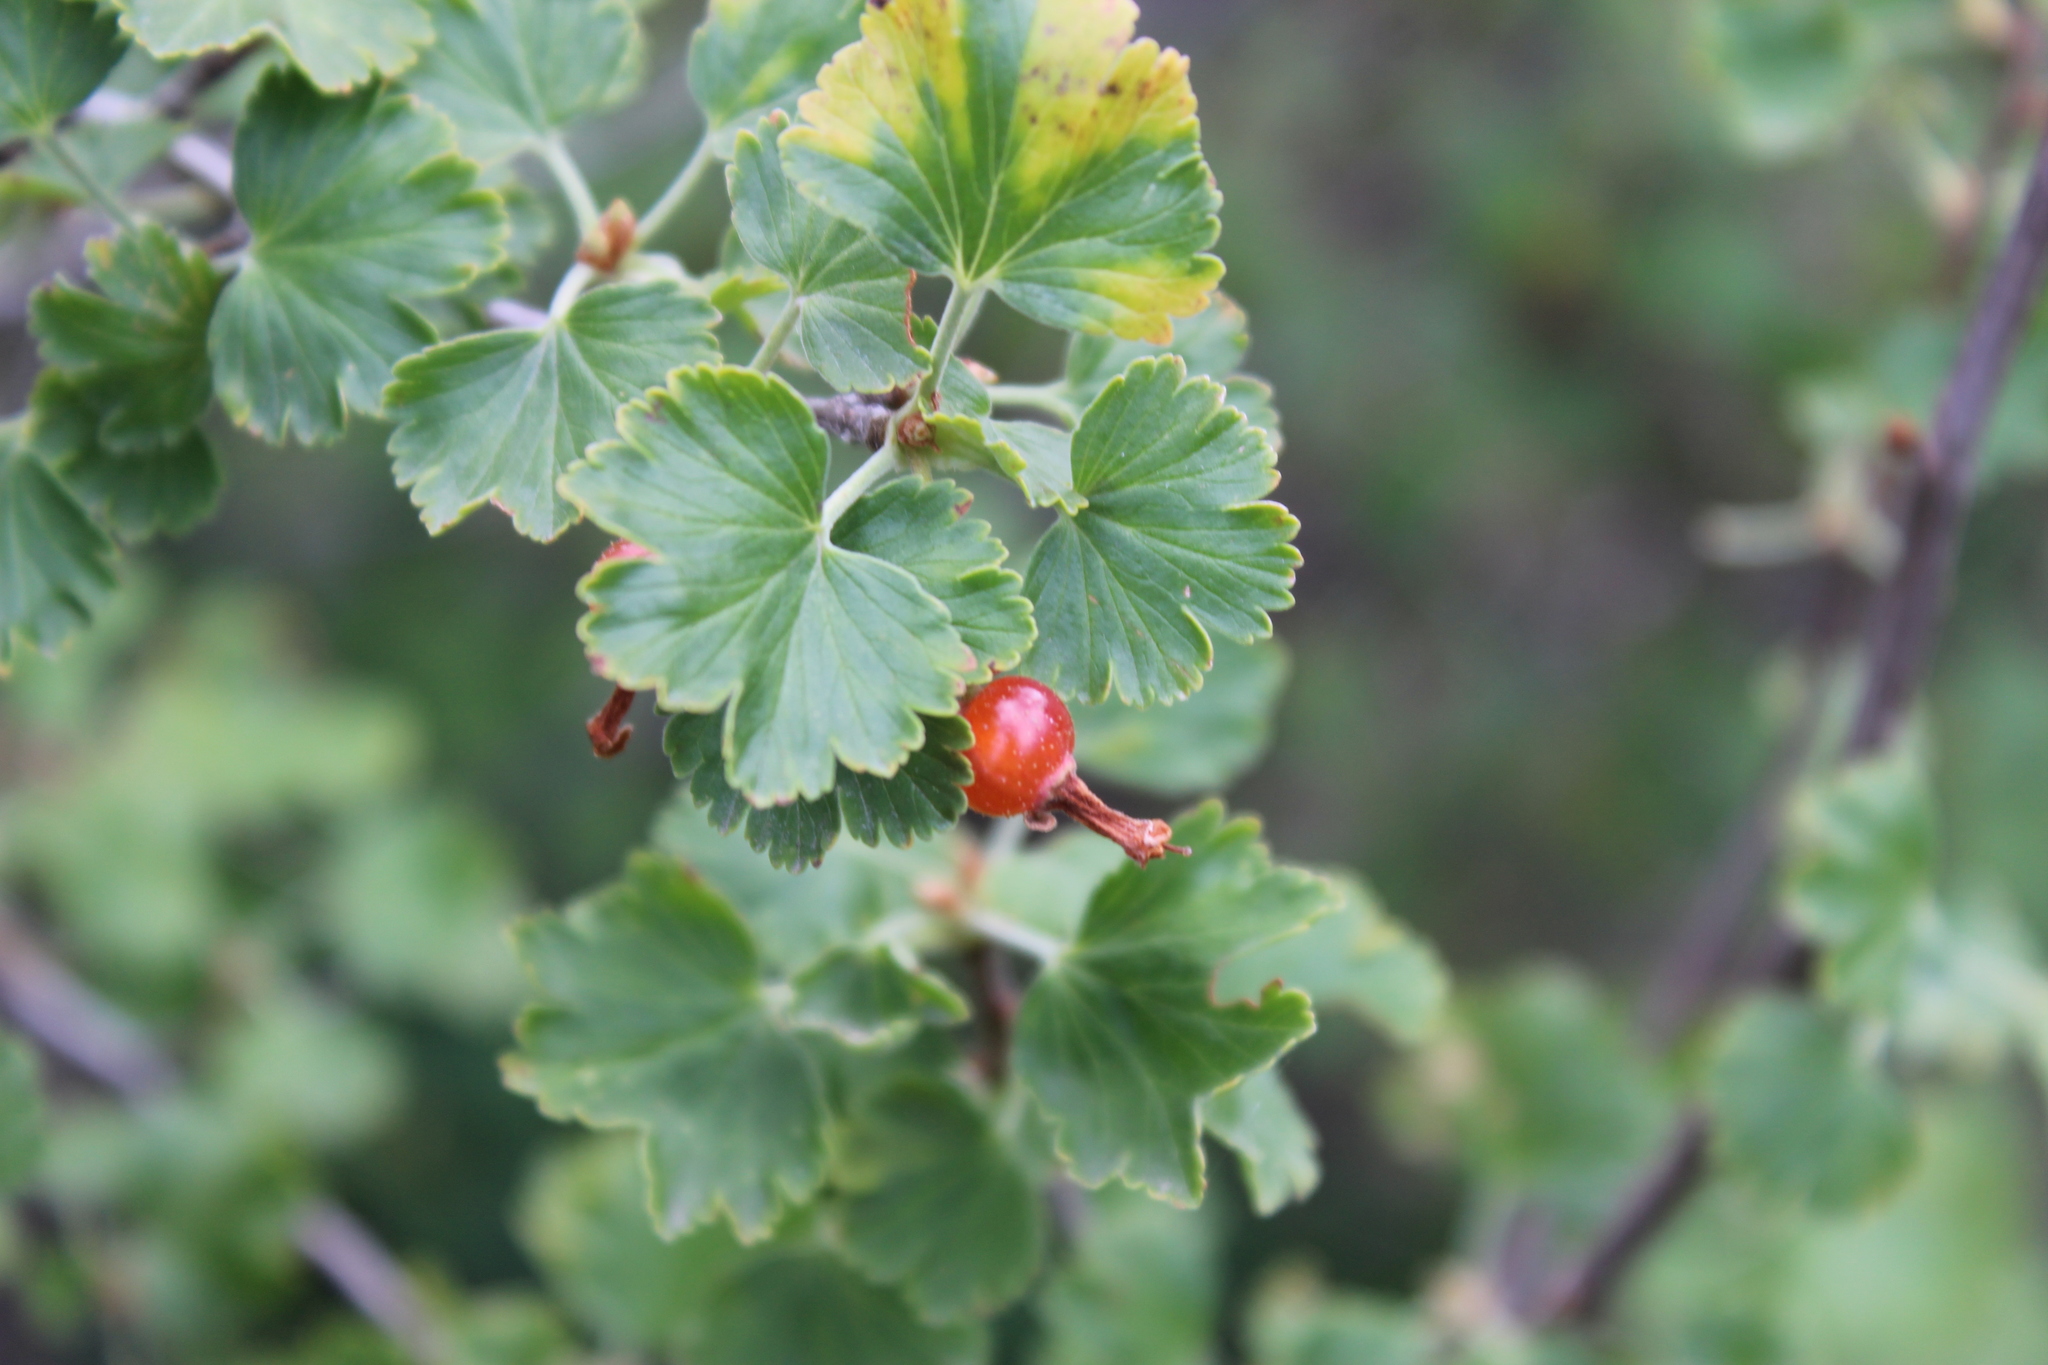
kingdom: Plantae
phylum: Tracheophyta
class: Magnoliopsida
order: Saxifragales
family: Grossulariaceae
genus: Ribes
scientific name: Ribes cereum
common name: Wax currant
